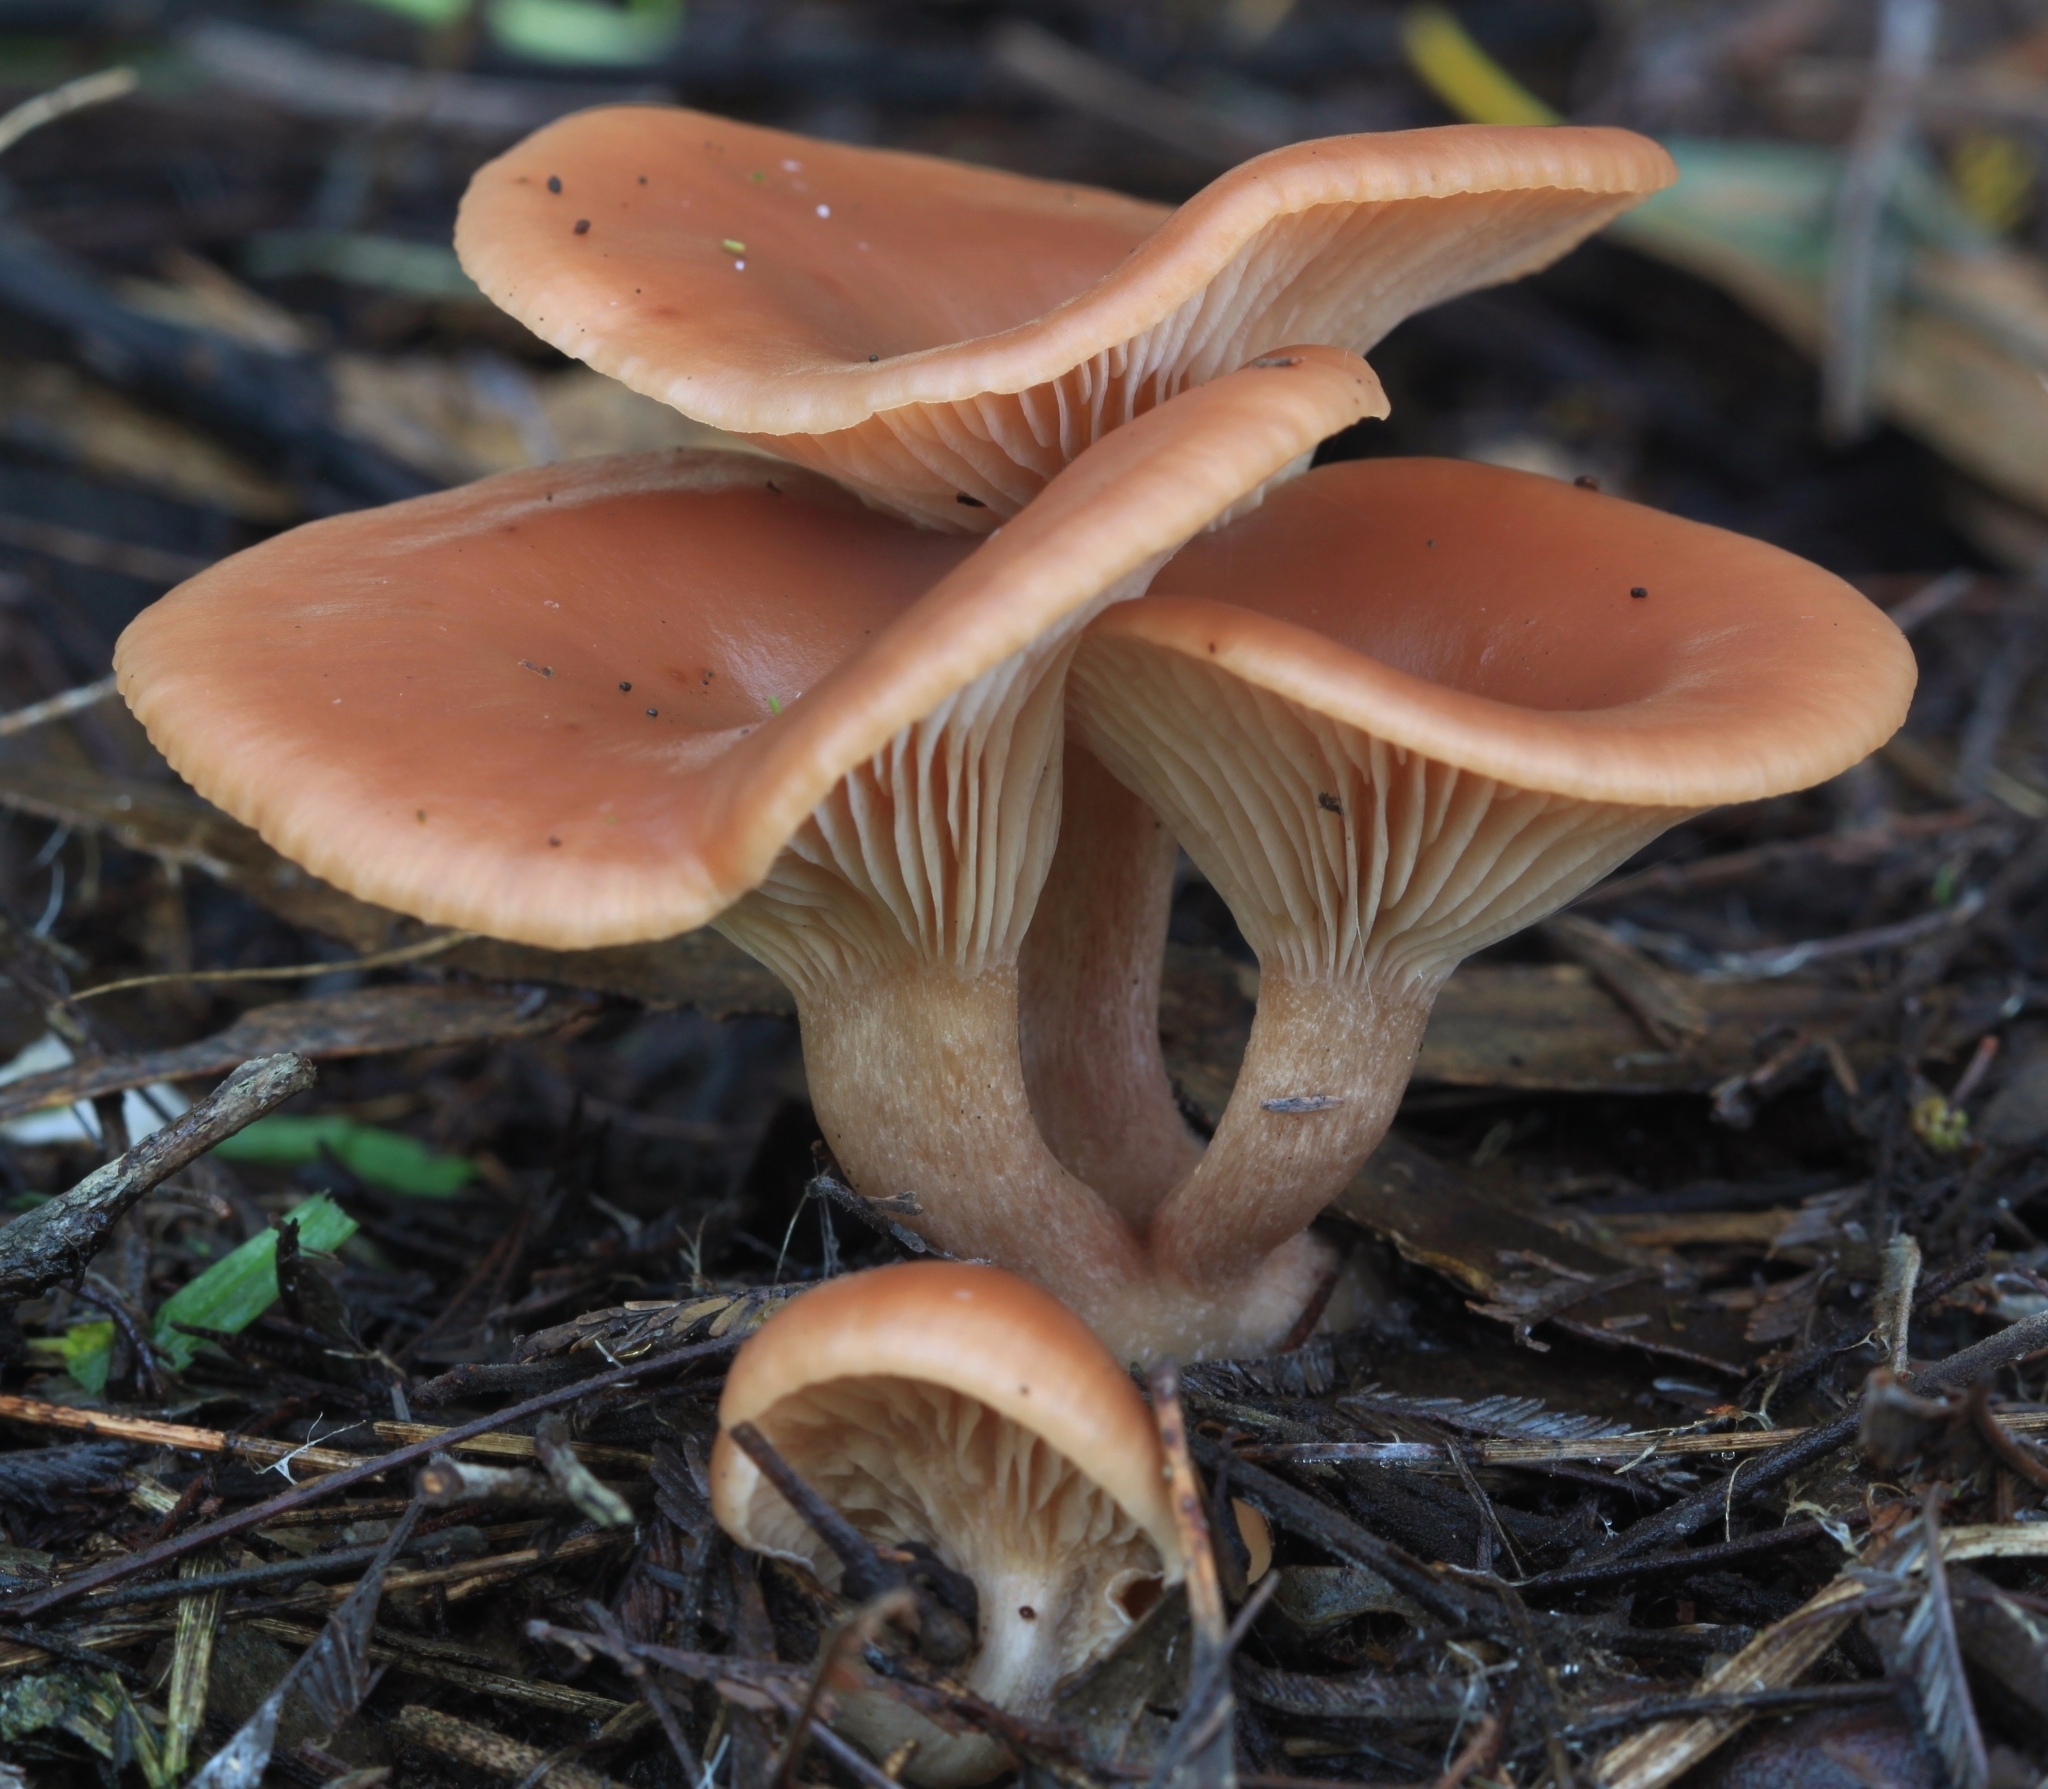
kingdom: Fungi
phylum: Basidiomycota
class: Agaricomycetes
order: Agaricales
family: Tricholomataceae
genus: Singerocybe
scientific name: Singerocybe clitocyboides
